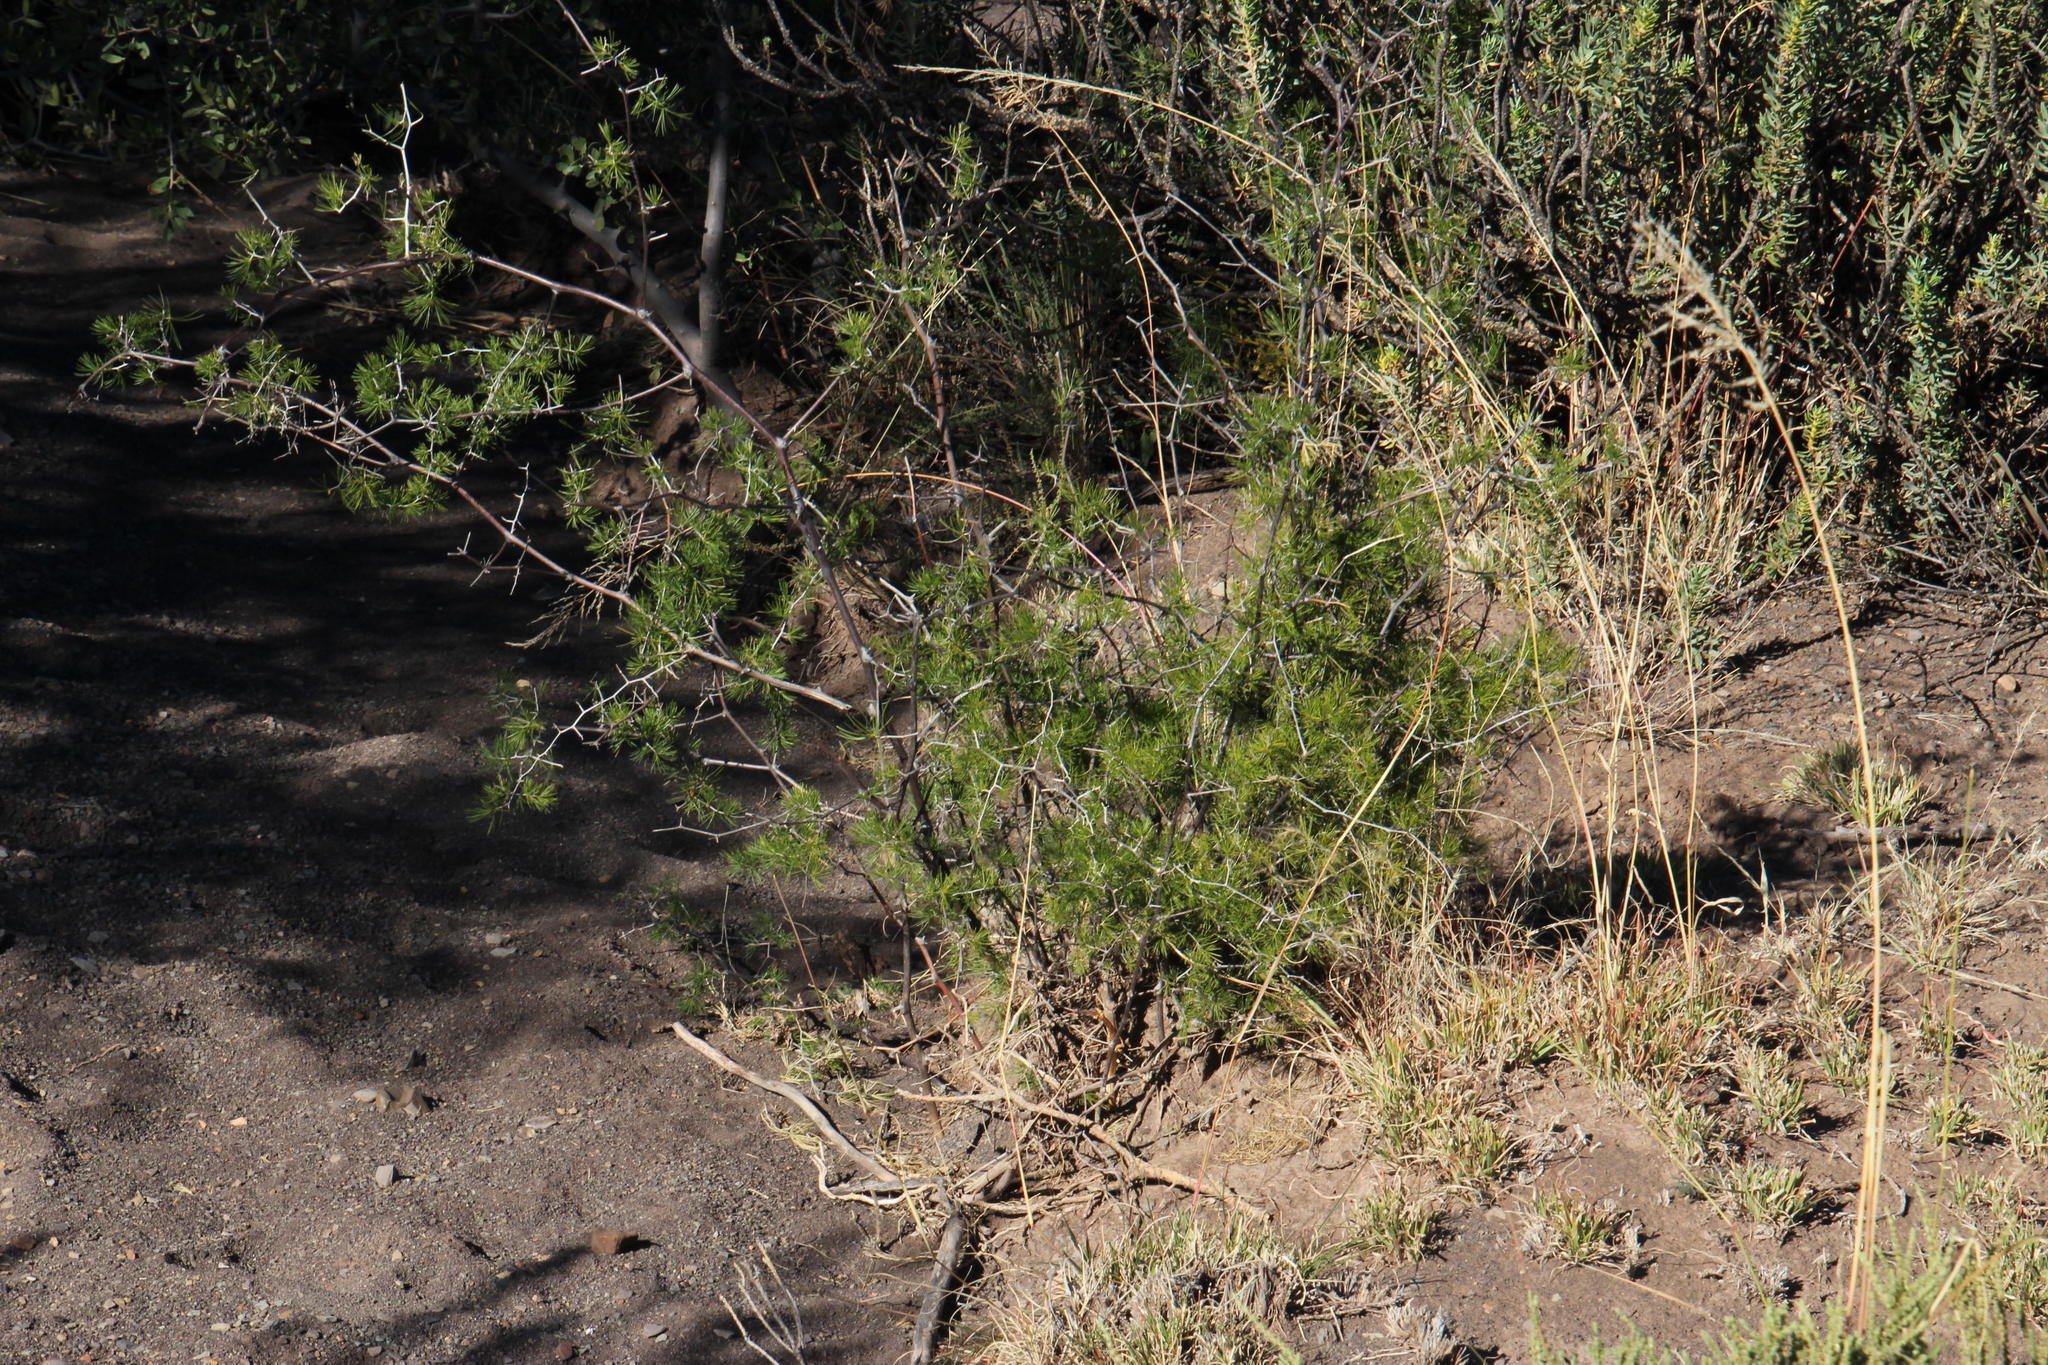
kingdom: Plantae
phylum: Tracheophyta
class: Liliopsida
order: Asparagales
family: Asparagaceae
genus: Asparagus
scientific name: Asparagus retrofractus
